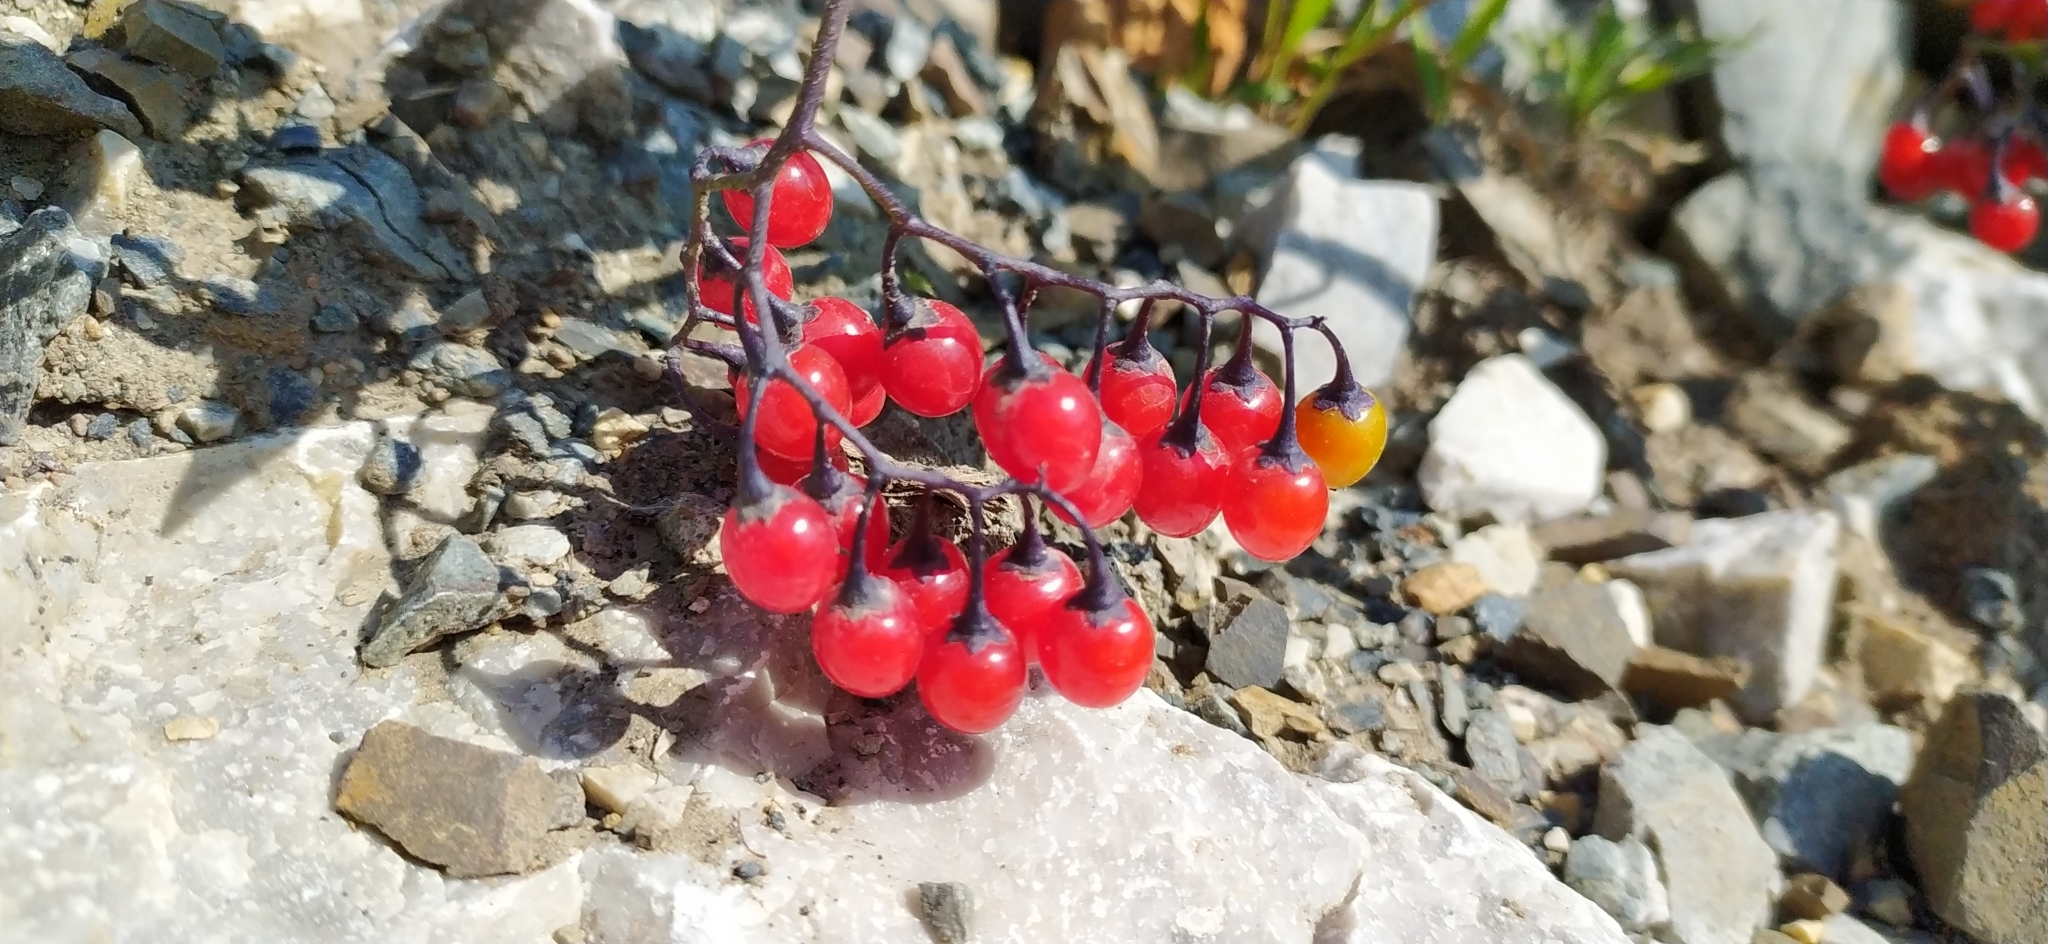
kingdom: Plantae
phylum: Tracheophyta
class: Magnoliopsida
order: Solanales
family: Solanaceae
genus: Solanum
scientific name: Solanum dulcamara
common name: Climbing nightshade
